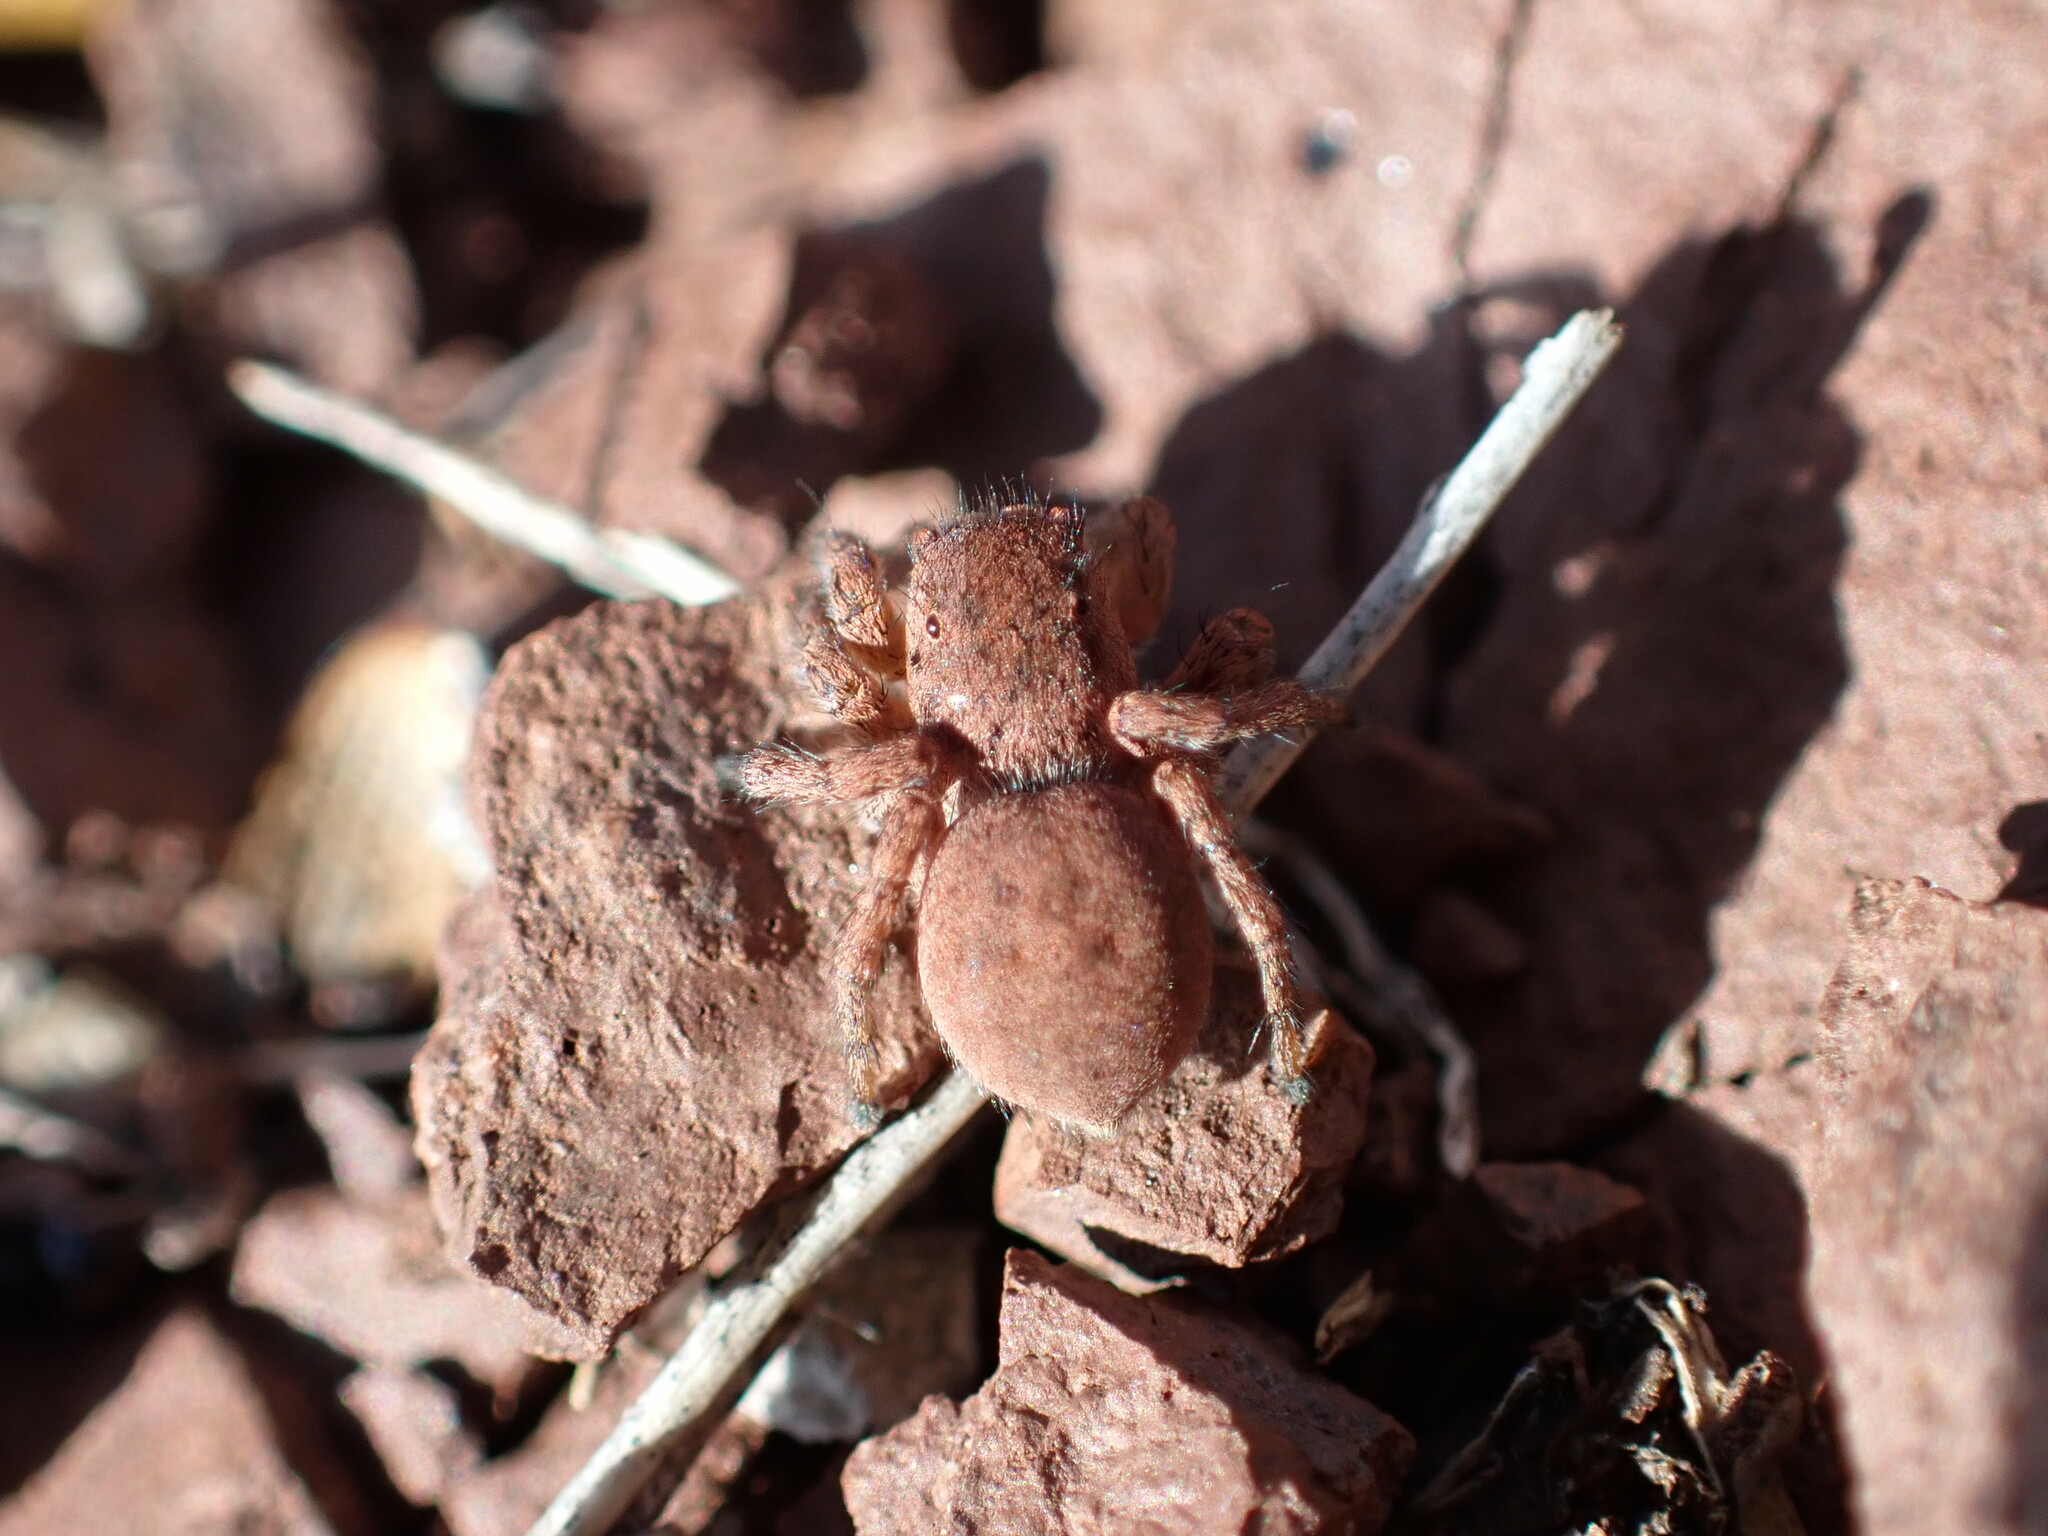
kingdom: Animalia
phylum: Arthropoda
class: Arachnida
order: Araneae
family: Salticidae
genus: Aelurillus
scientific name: Aelurillus v-insignitus
